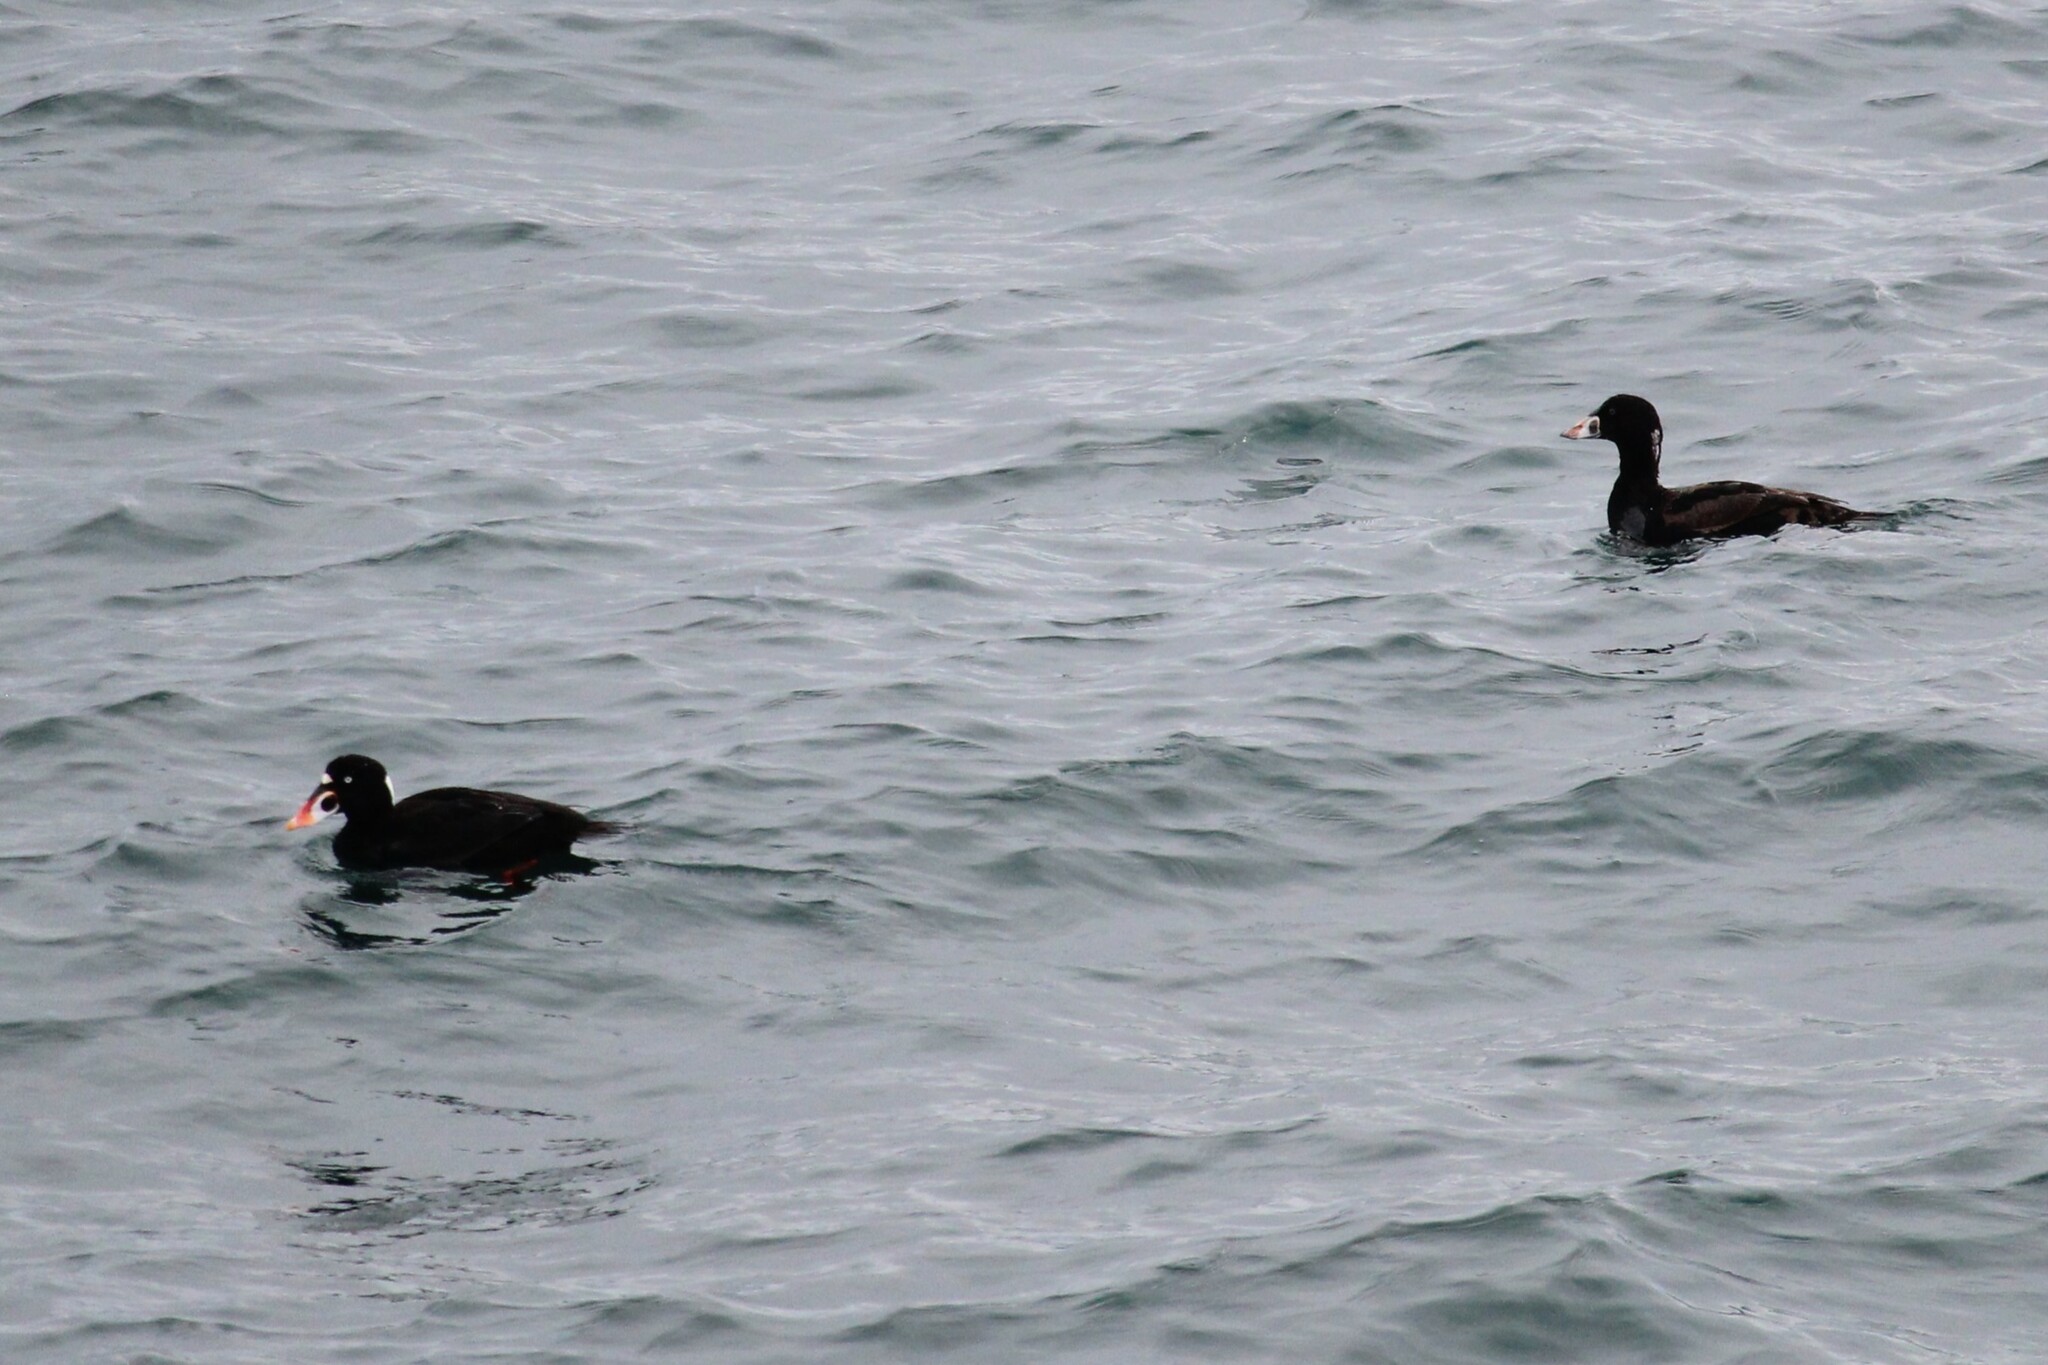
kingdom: Animalia
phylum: Chordata
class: Aves
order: Anseriformes
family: Anatidae
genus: Melanitta
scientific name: Melanitta perspicillata
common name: Surf scoter
